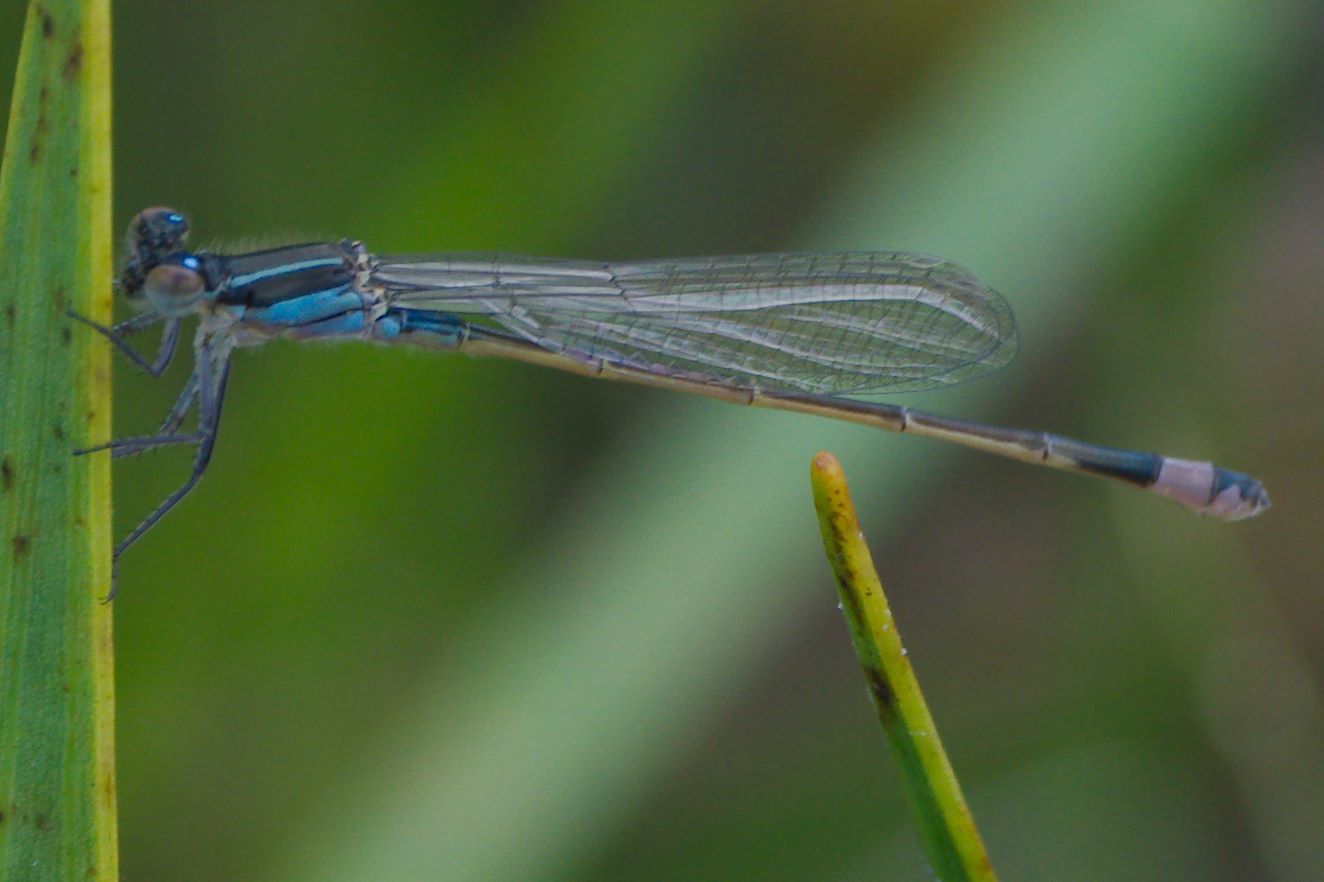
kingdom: Animalia
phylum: Arthropoda
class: Insecta
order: Odonata
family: Coenagrionidae
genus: Ischnura
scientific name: Ischnura ramburii
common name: Rambur's forktail
